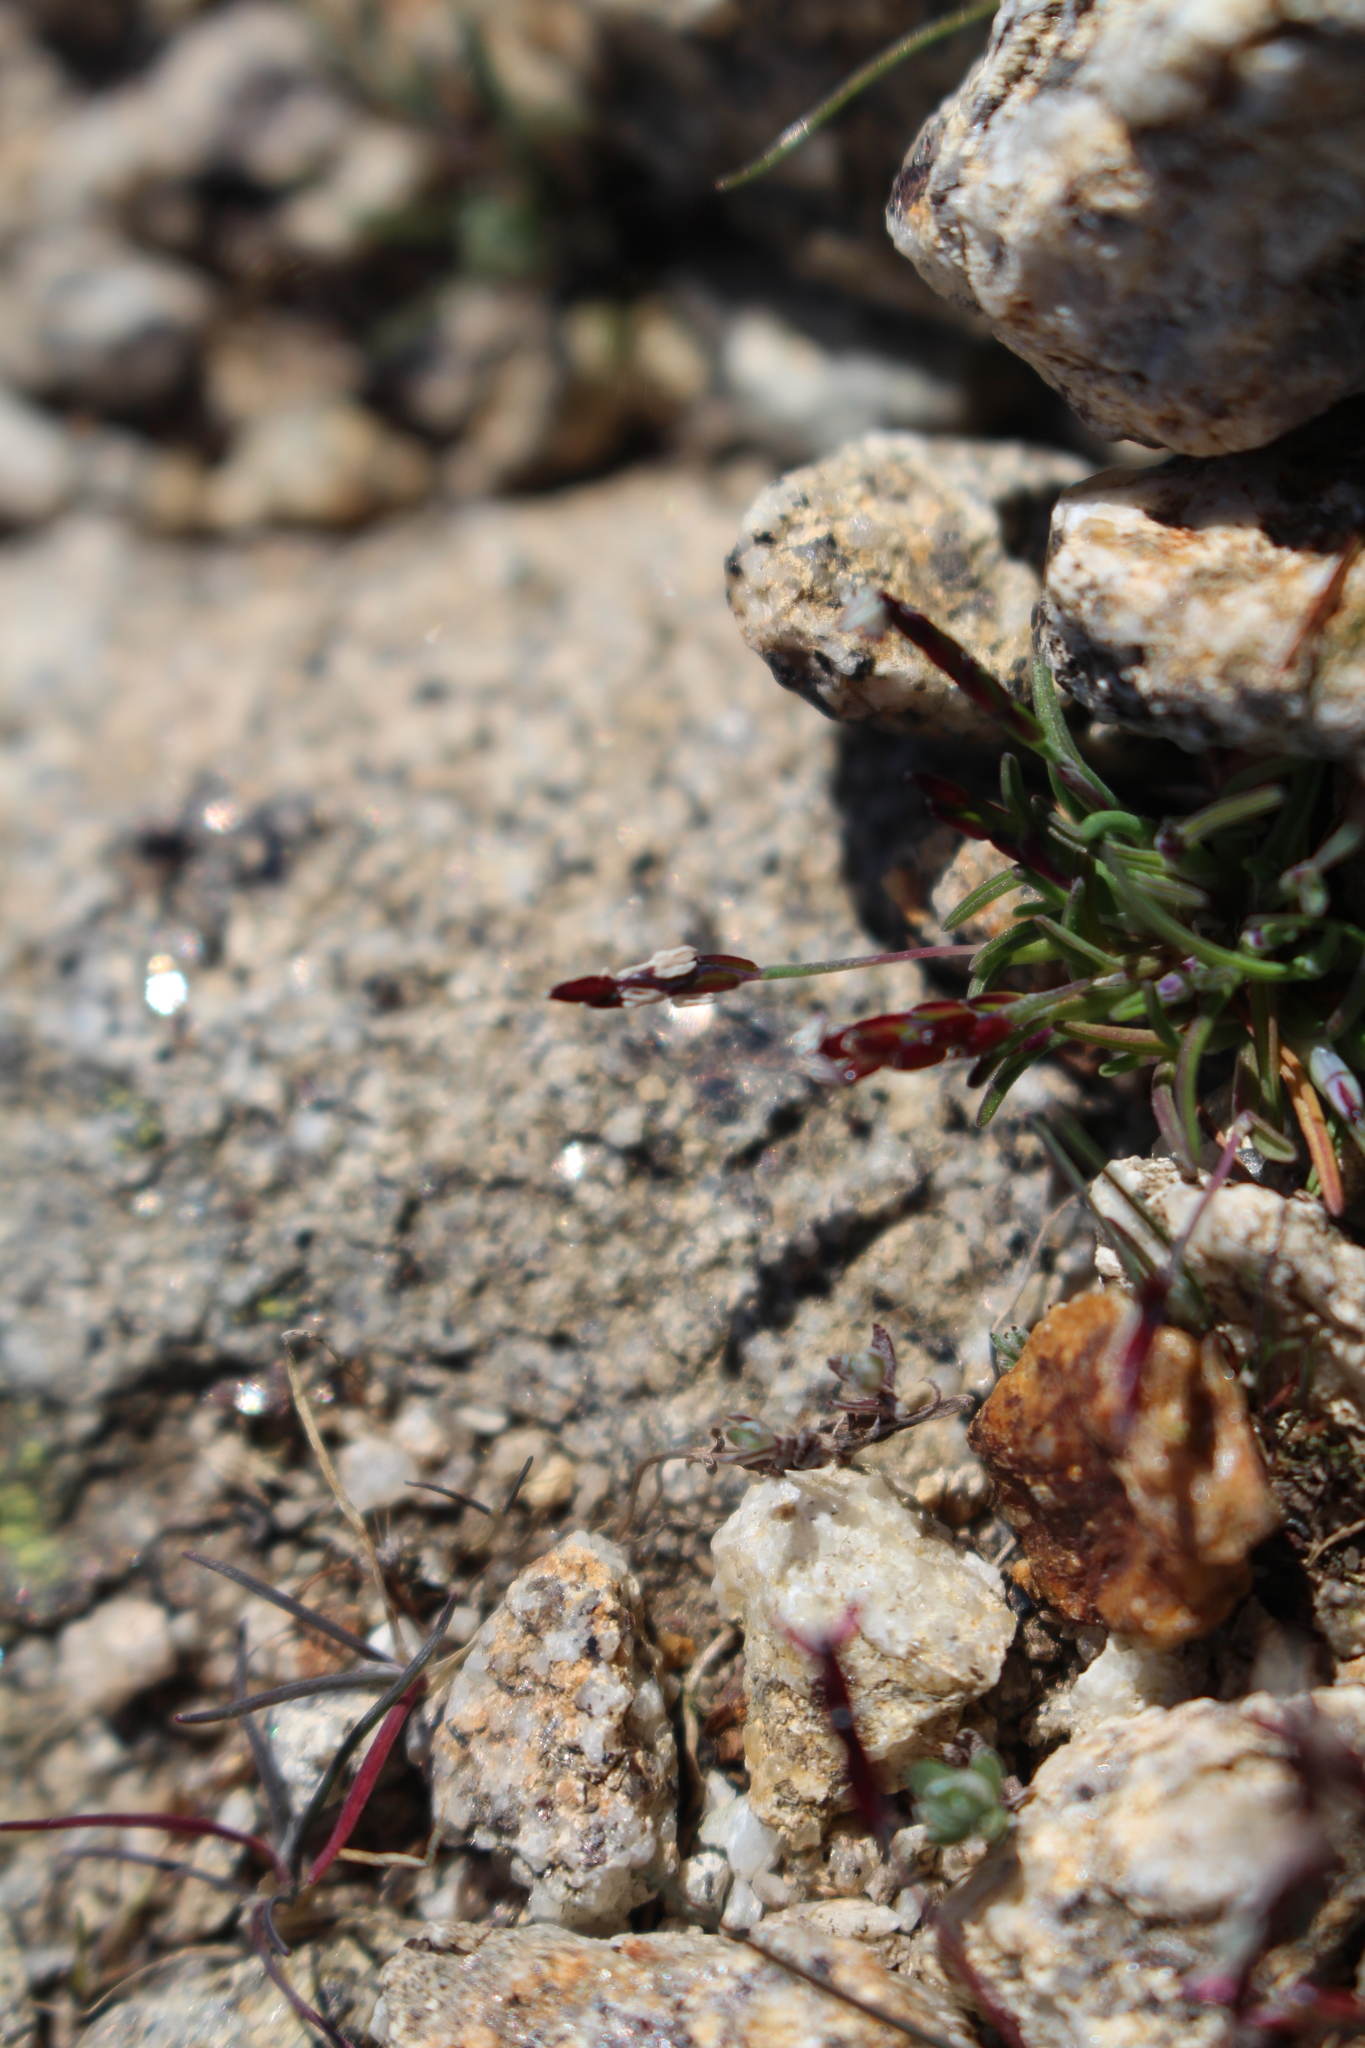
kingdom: Plantae
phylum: Tracheophyta
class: Liliopsida
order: Poales
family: Poaceae
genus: Mibora
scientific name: Mibora minima
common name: Early sand-grass
